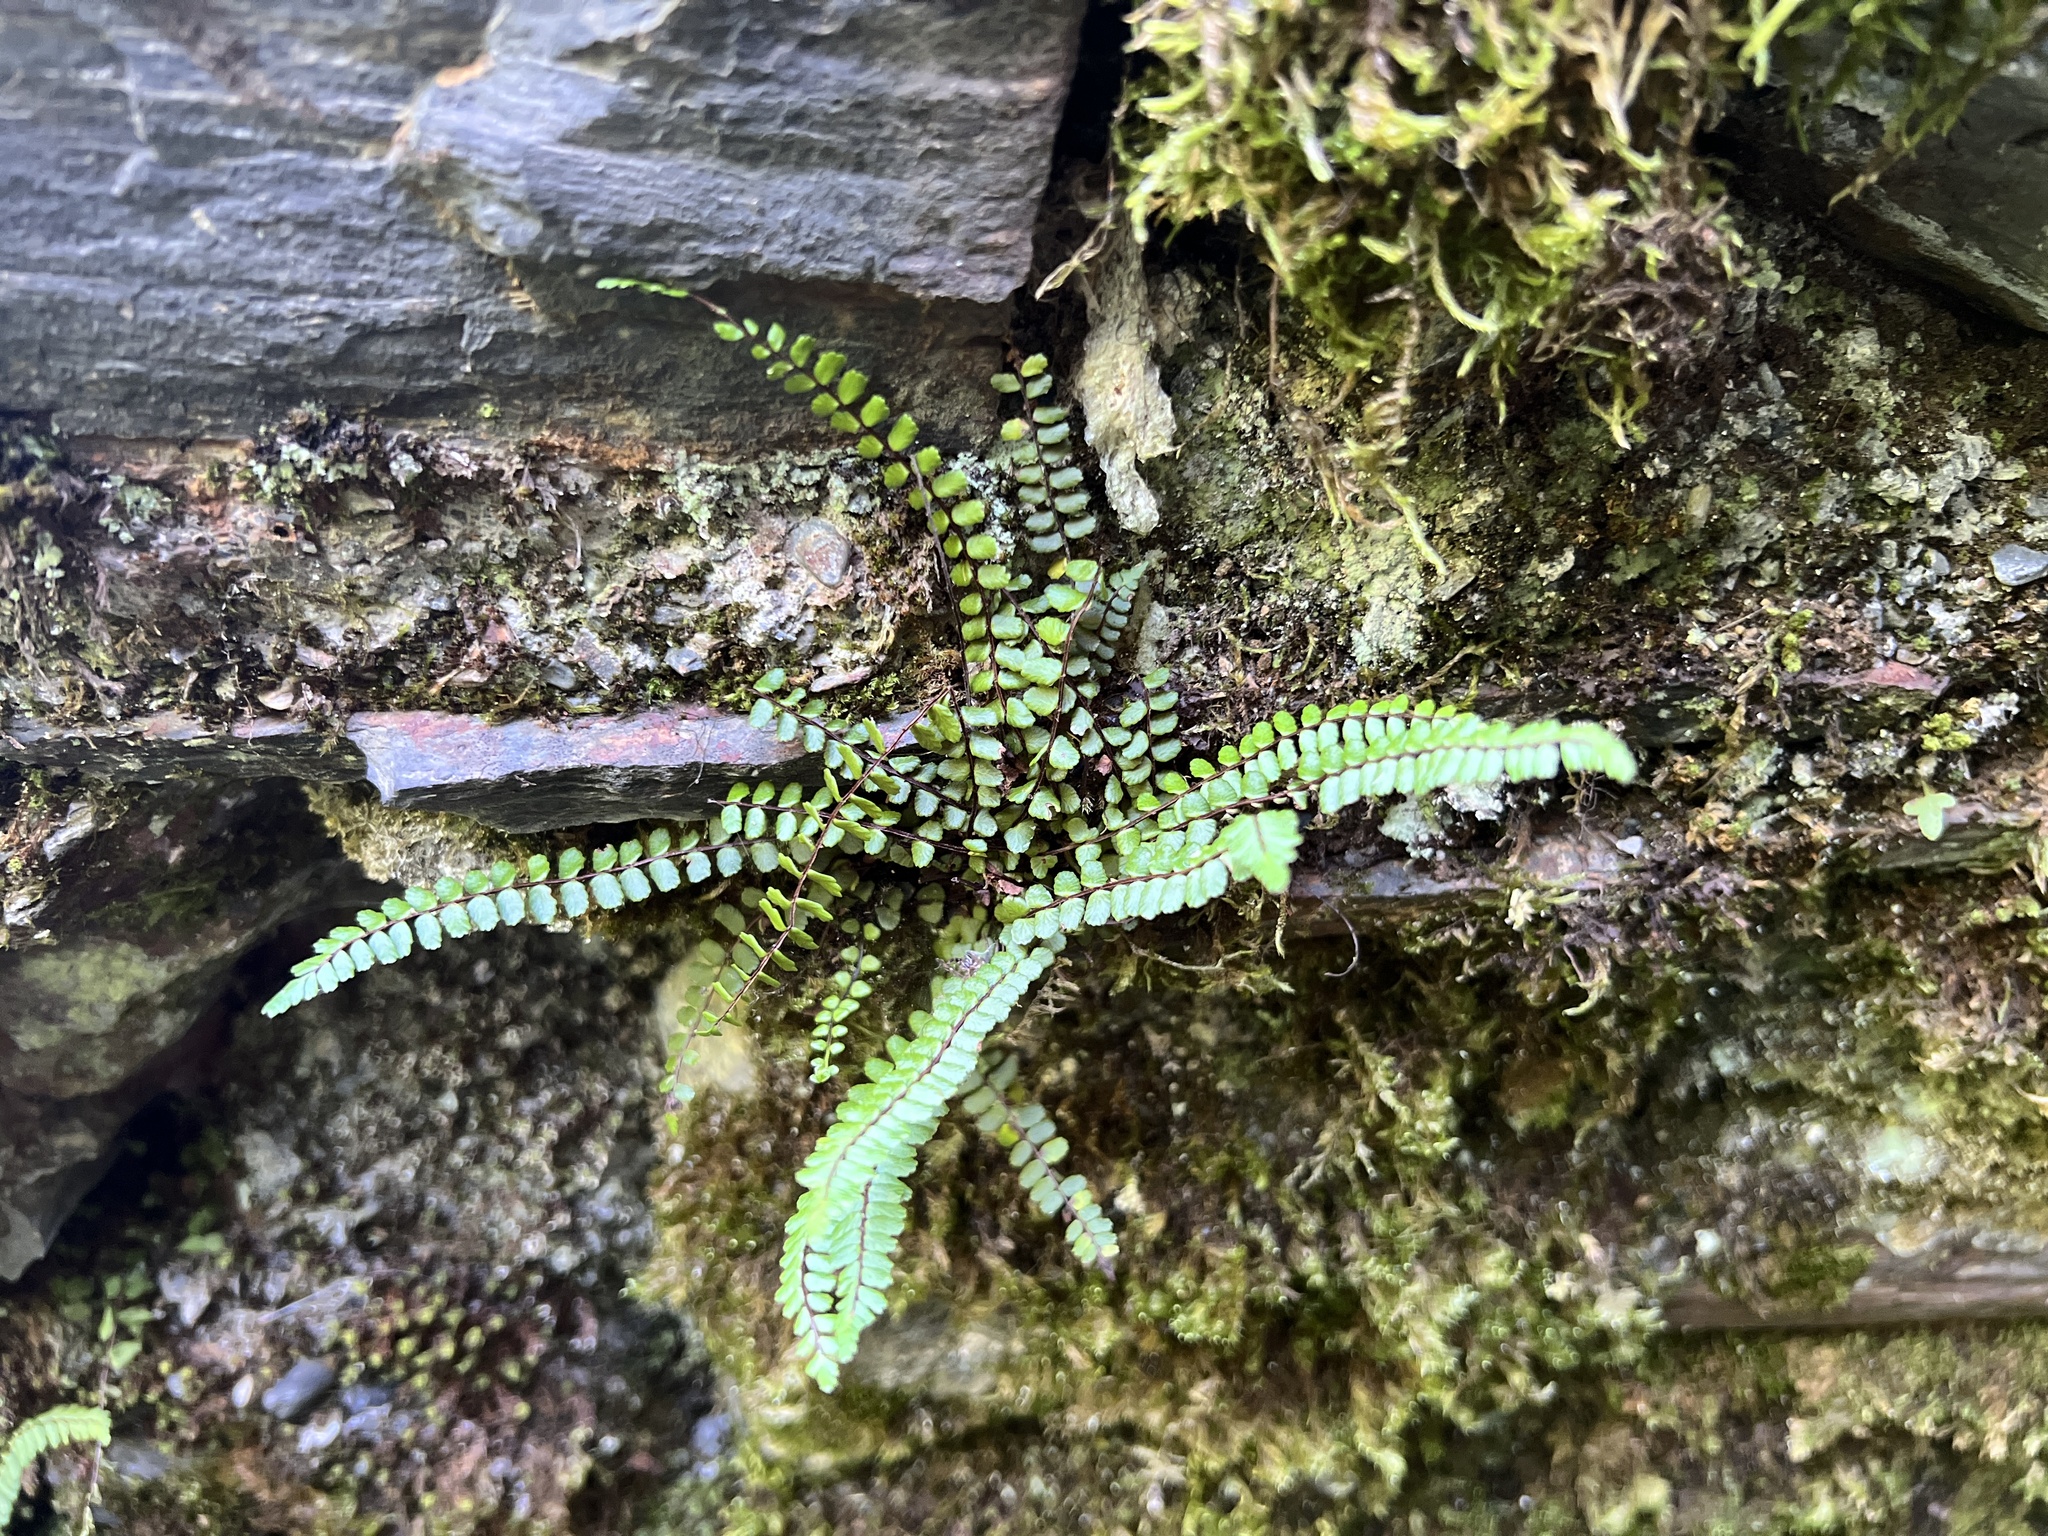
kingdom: Plantae
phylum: Tracheophyta
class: Polypodiopsida
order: Polypodiales
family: Aspleniaceae
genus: Asplenium
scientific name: Asplenium trichomanes
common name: Maidenhair spleenwort
